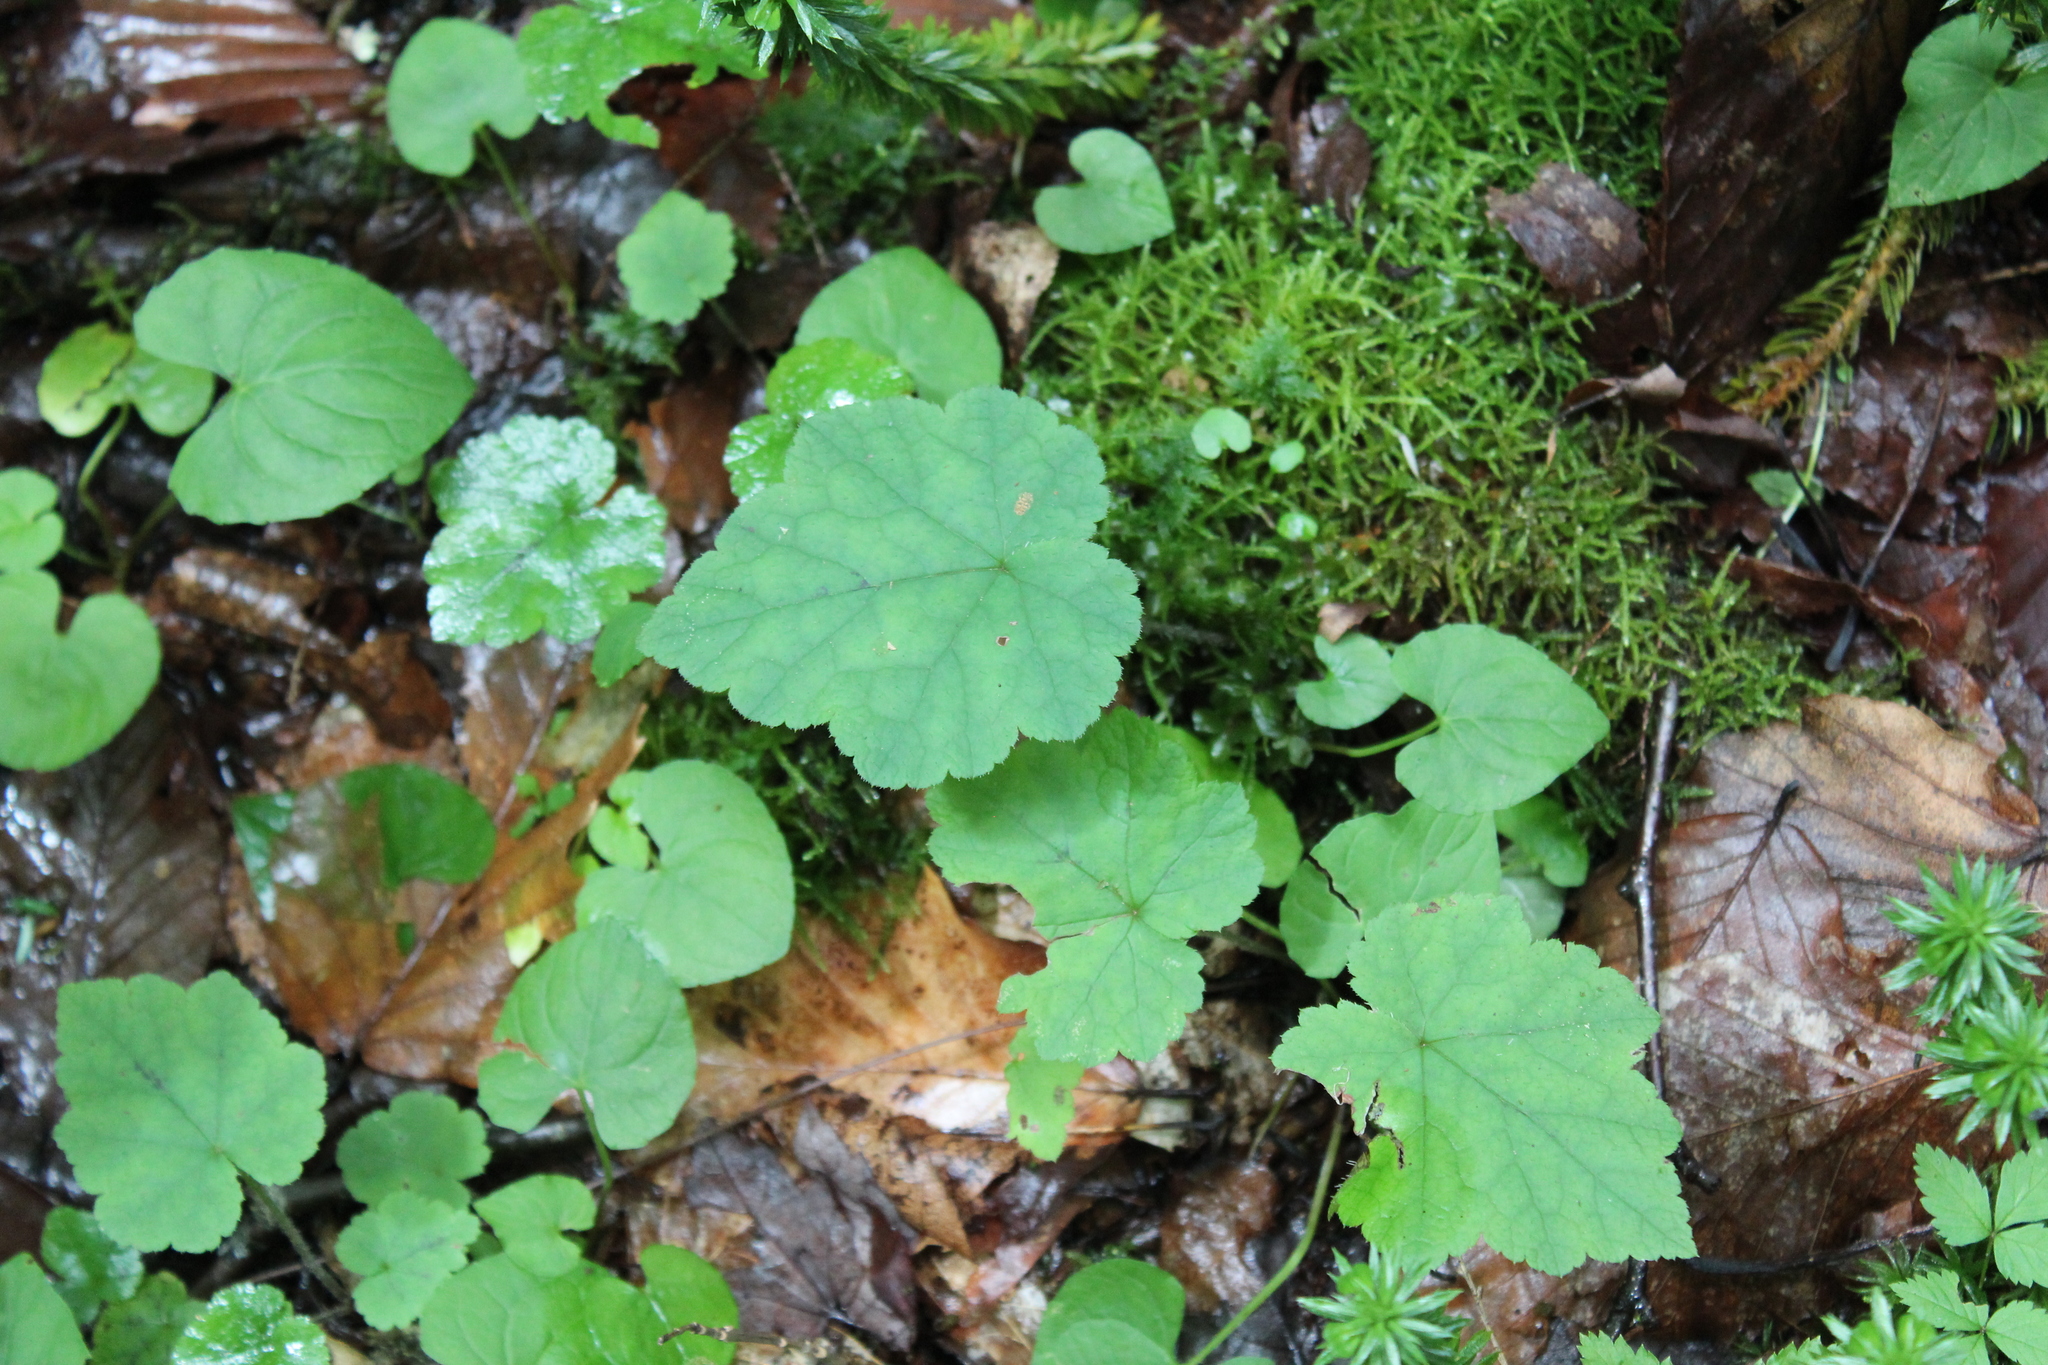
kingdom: Plantae
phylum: Tracheophyta
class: Magnoliopsida
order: Saxifragales
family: Saxifragaceae
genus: Tiarella
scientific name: Tiarella stolonifera
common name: Stoloniferous foamflower
